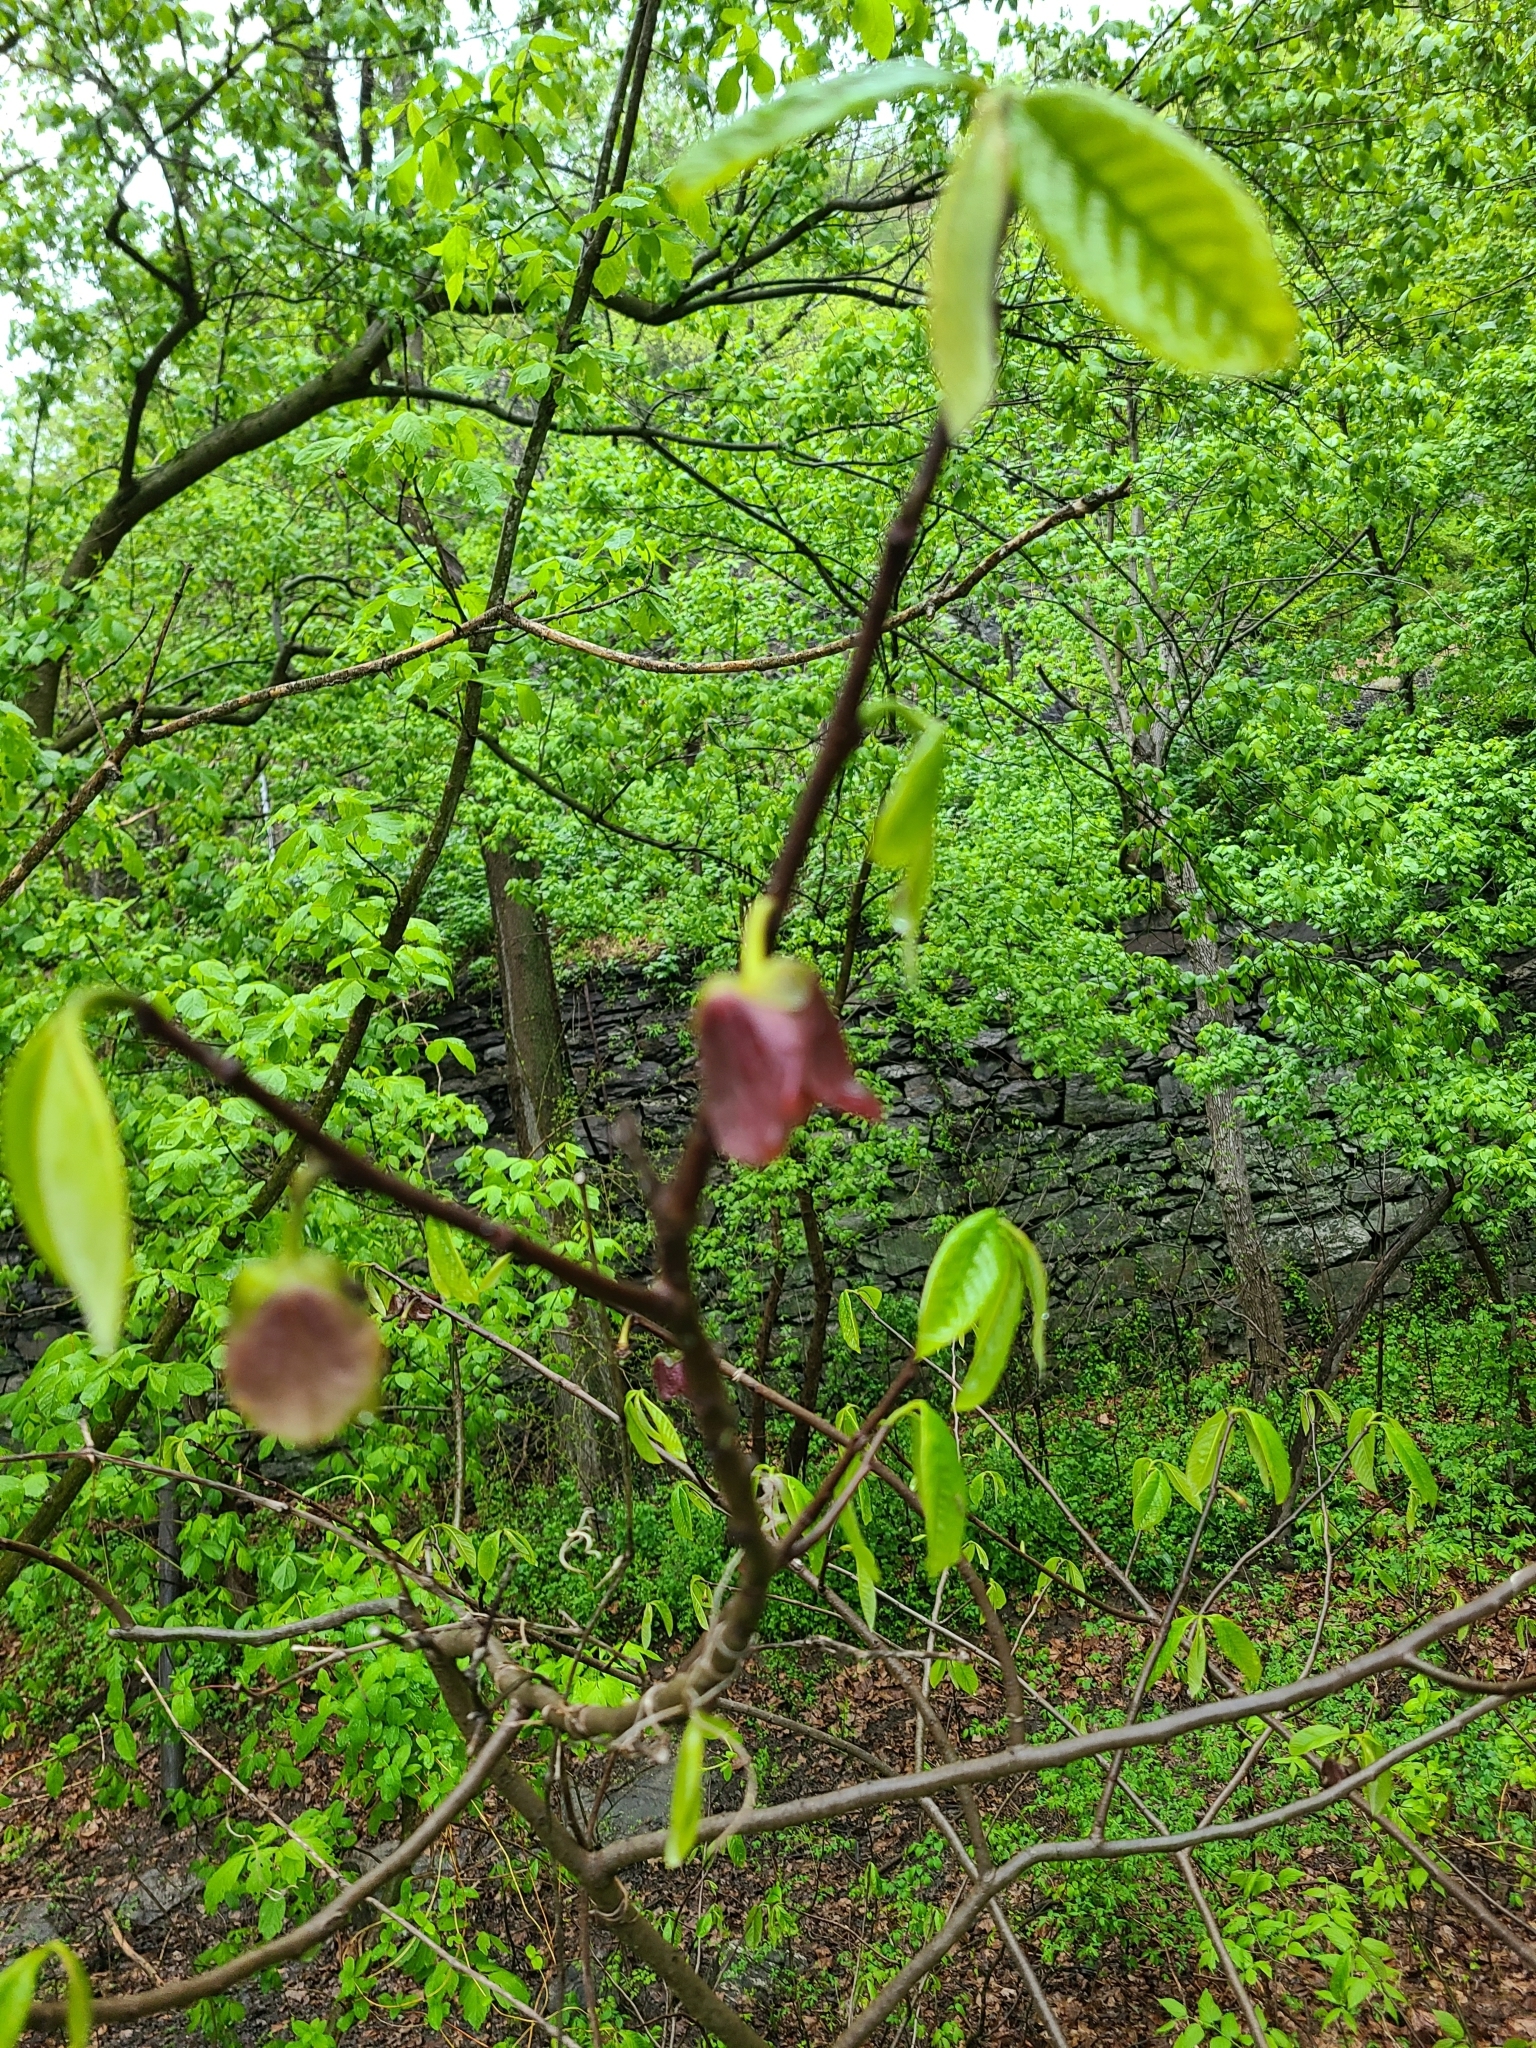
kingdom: Plantae
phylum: Tracheophyta
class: Magnoliopsida
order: Magnoliales
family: Annonaceae
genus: Asimina
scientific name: Asimina triloba
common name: Dog-banana
